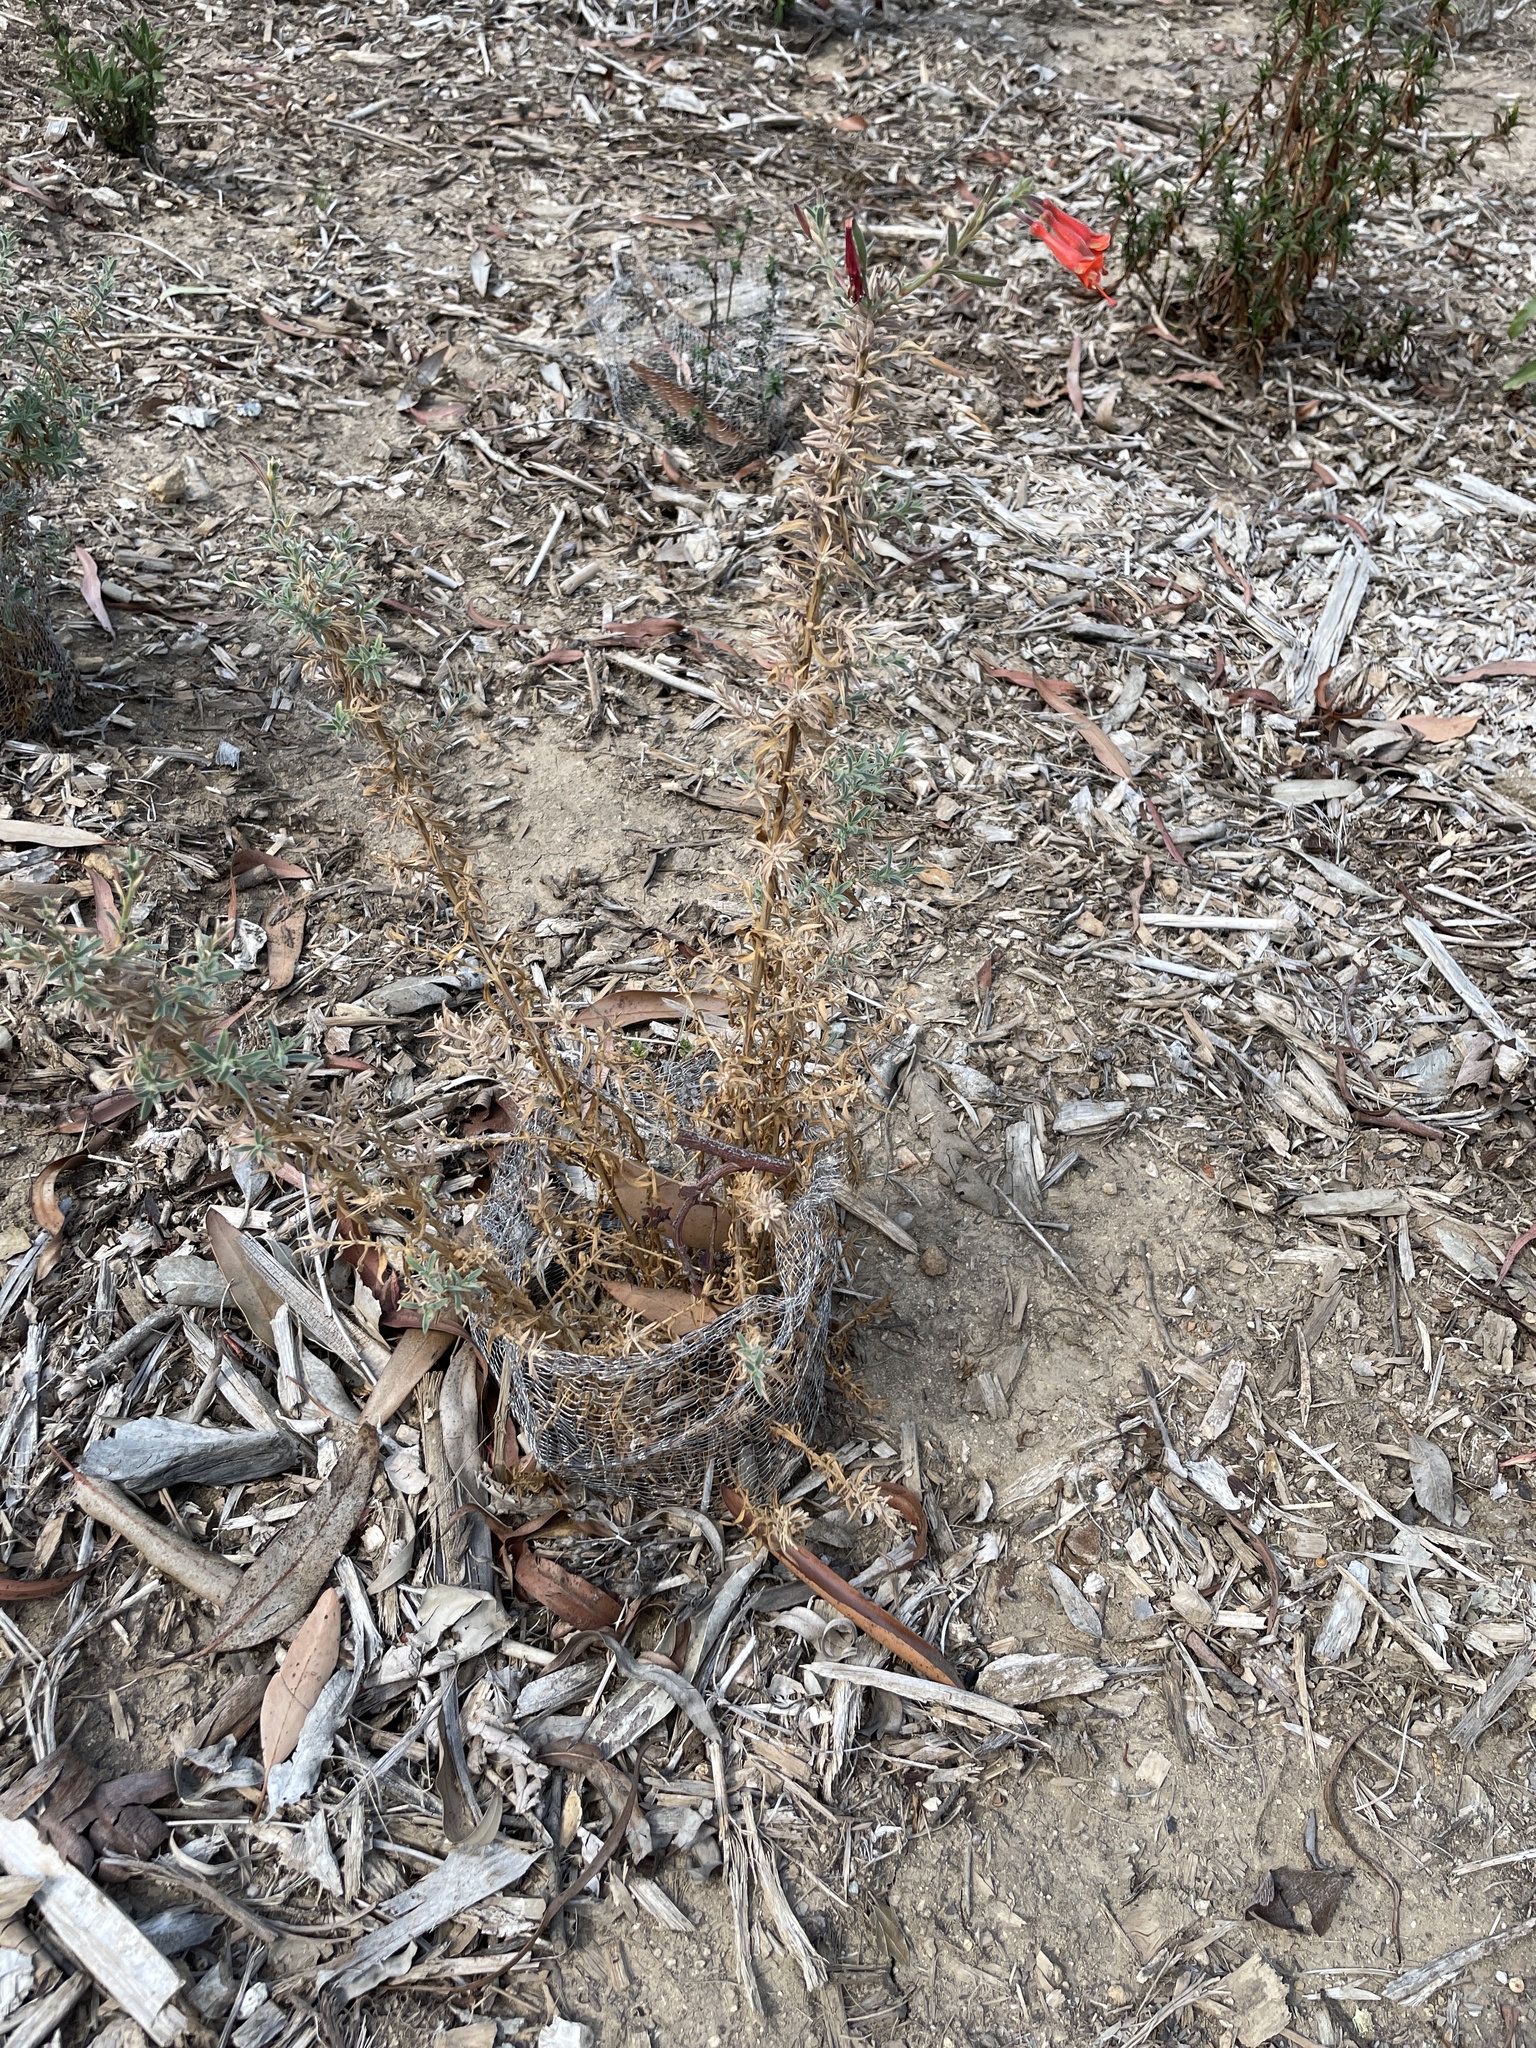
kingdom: Plantae
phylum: Tracheophyta
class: Magnoliopsida
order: Myrtales
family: Onagraceae
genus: Epilobium
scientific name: Epilobium canum
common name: California-fuchsia
